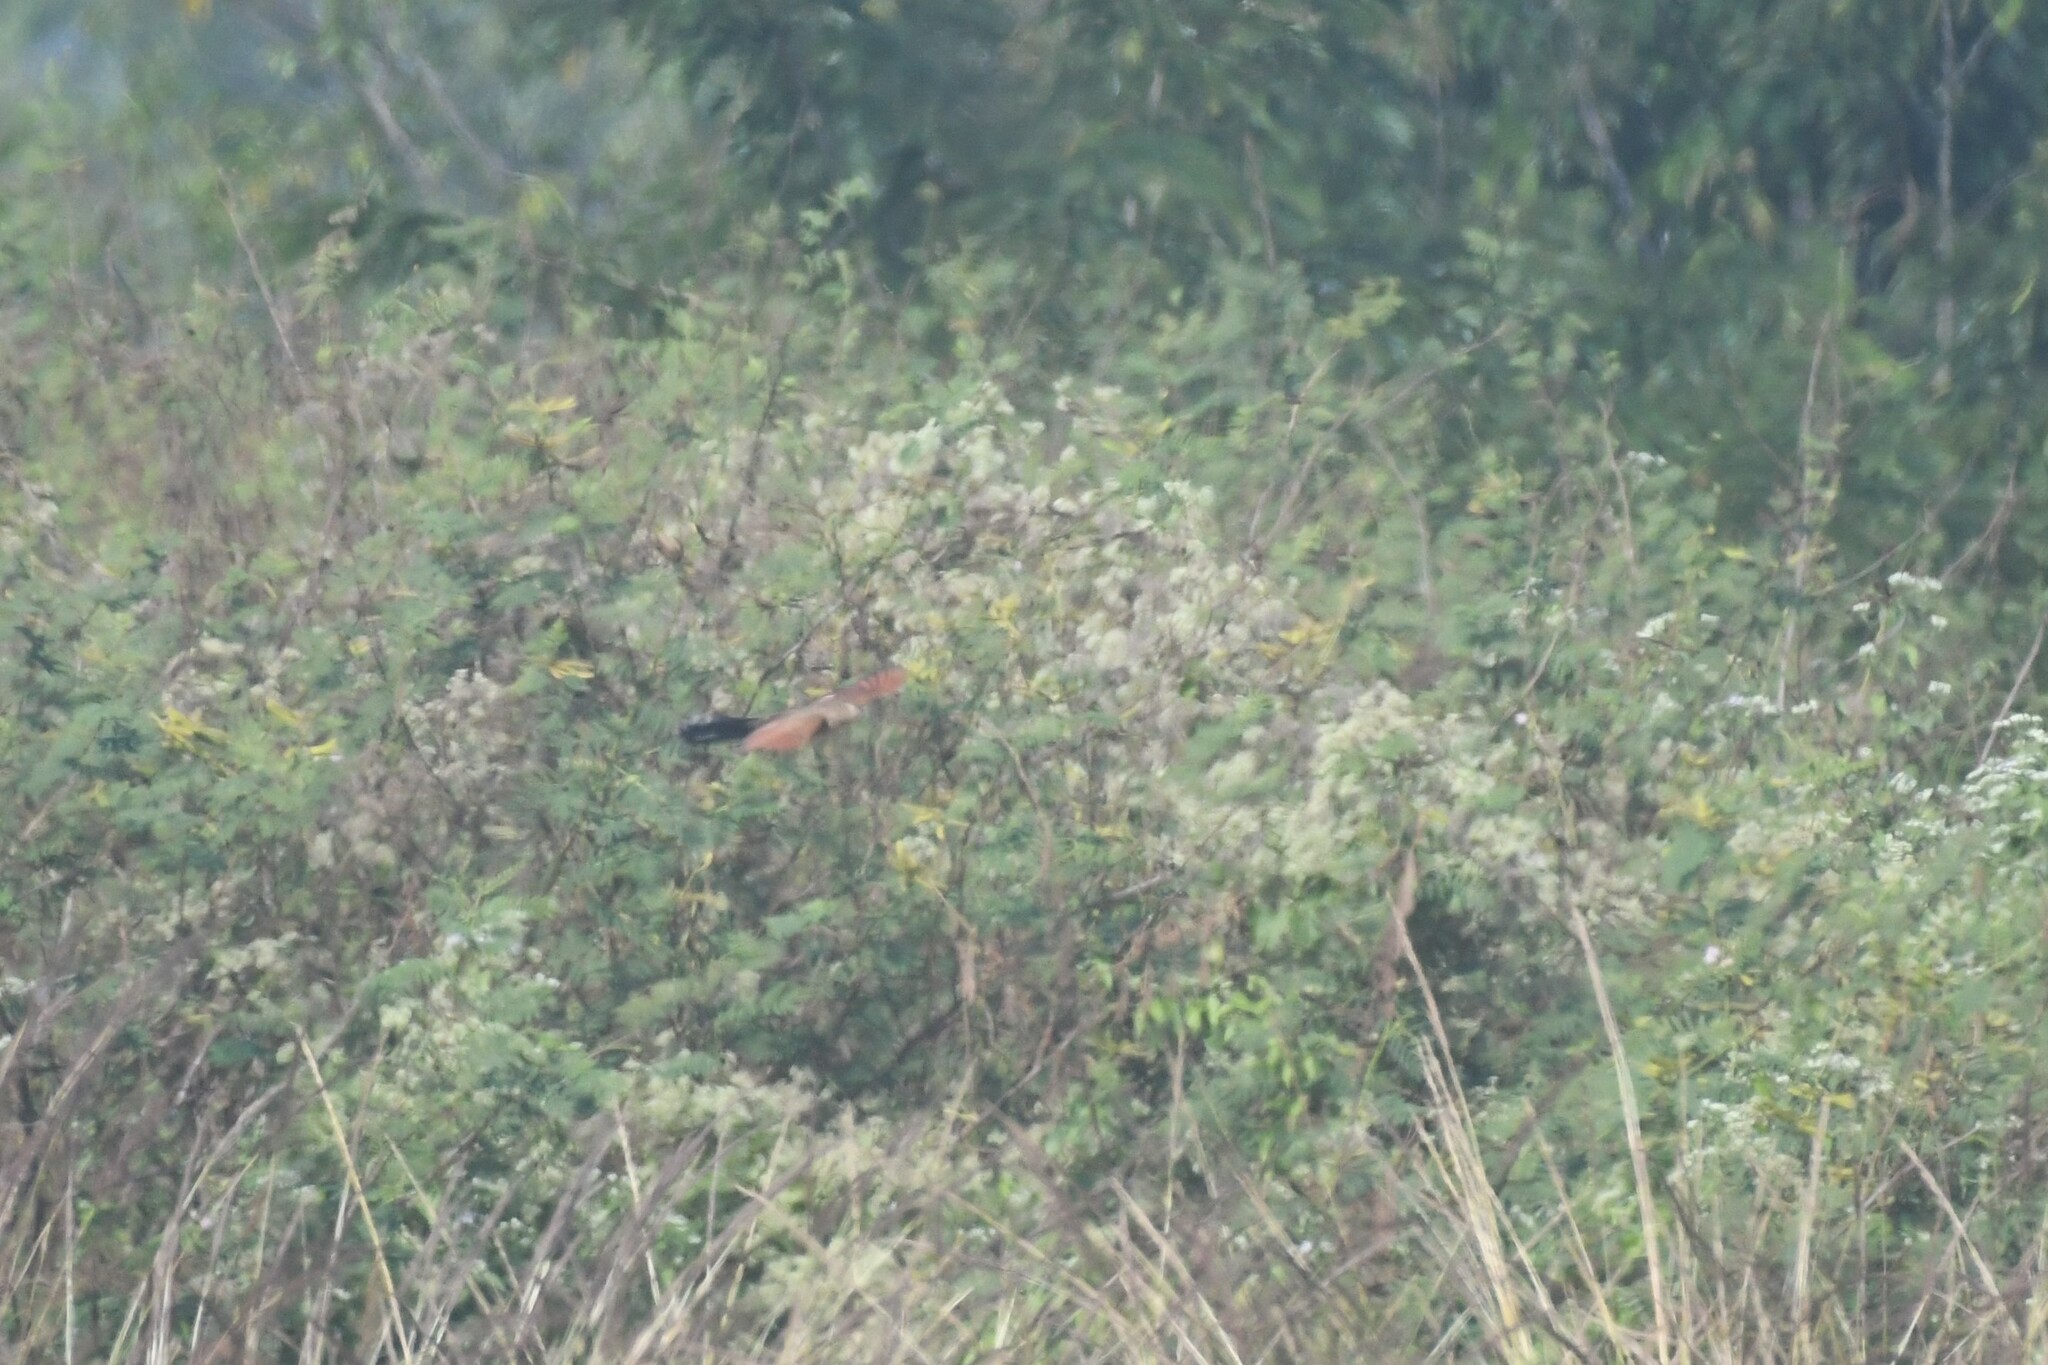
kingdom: Animalia
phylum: Chordata
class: Aves
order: Cuculiformes
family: Cuculidae
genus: Centropus
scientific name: Centropus bengalensis
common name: Lesser coucal
